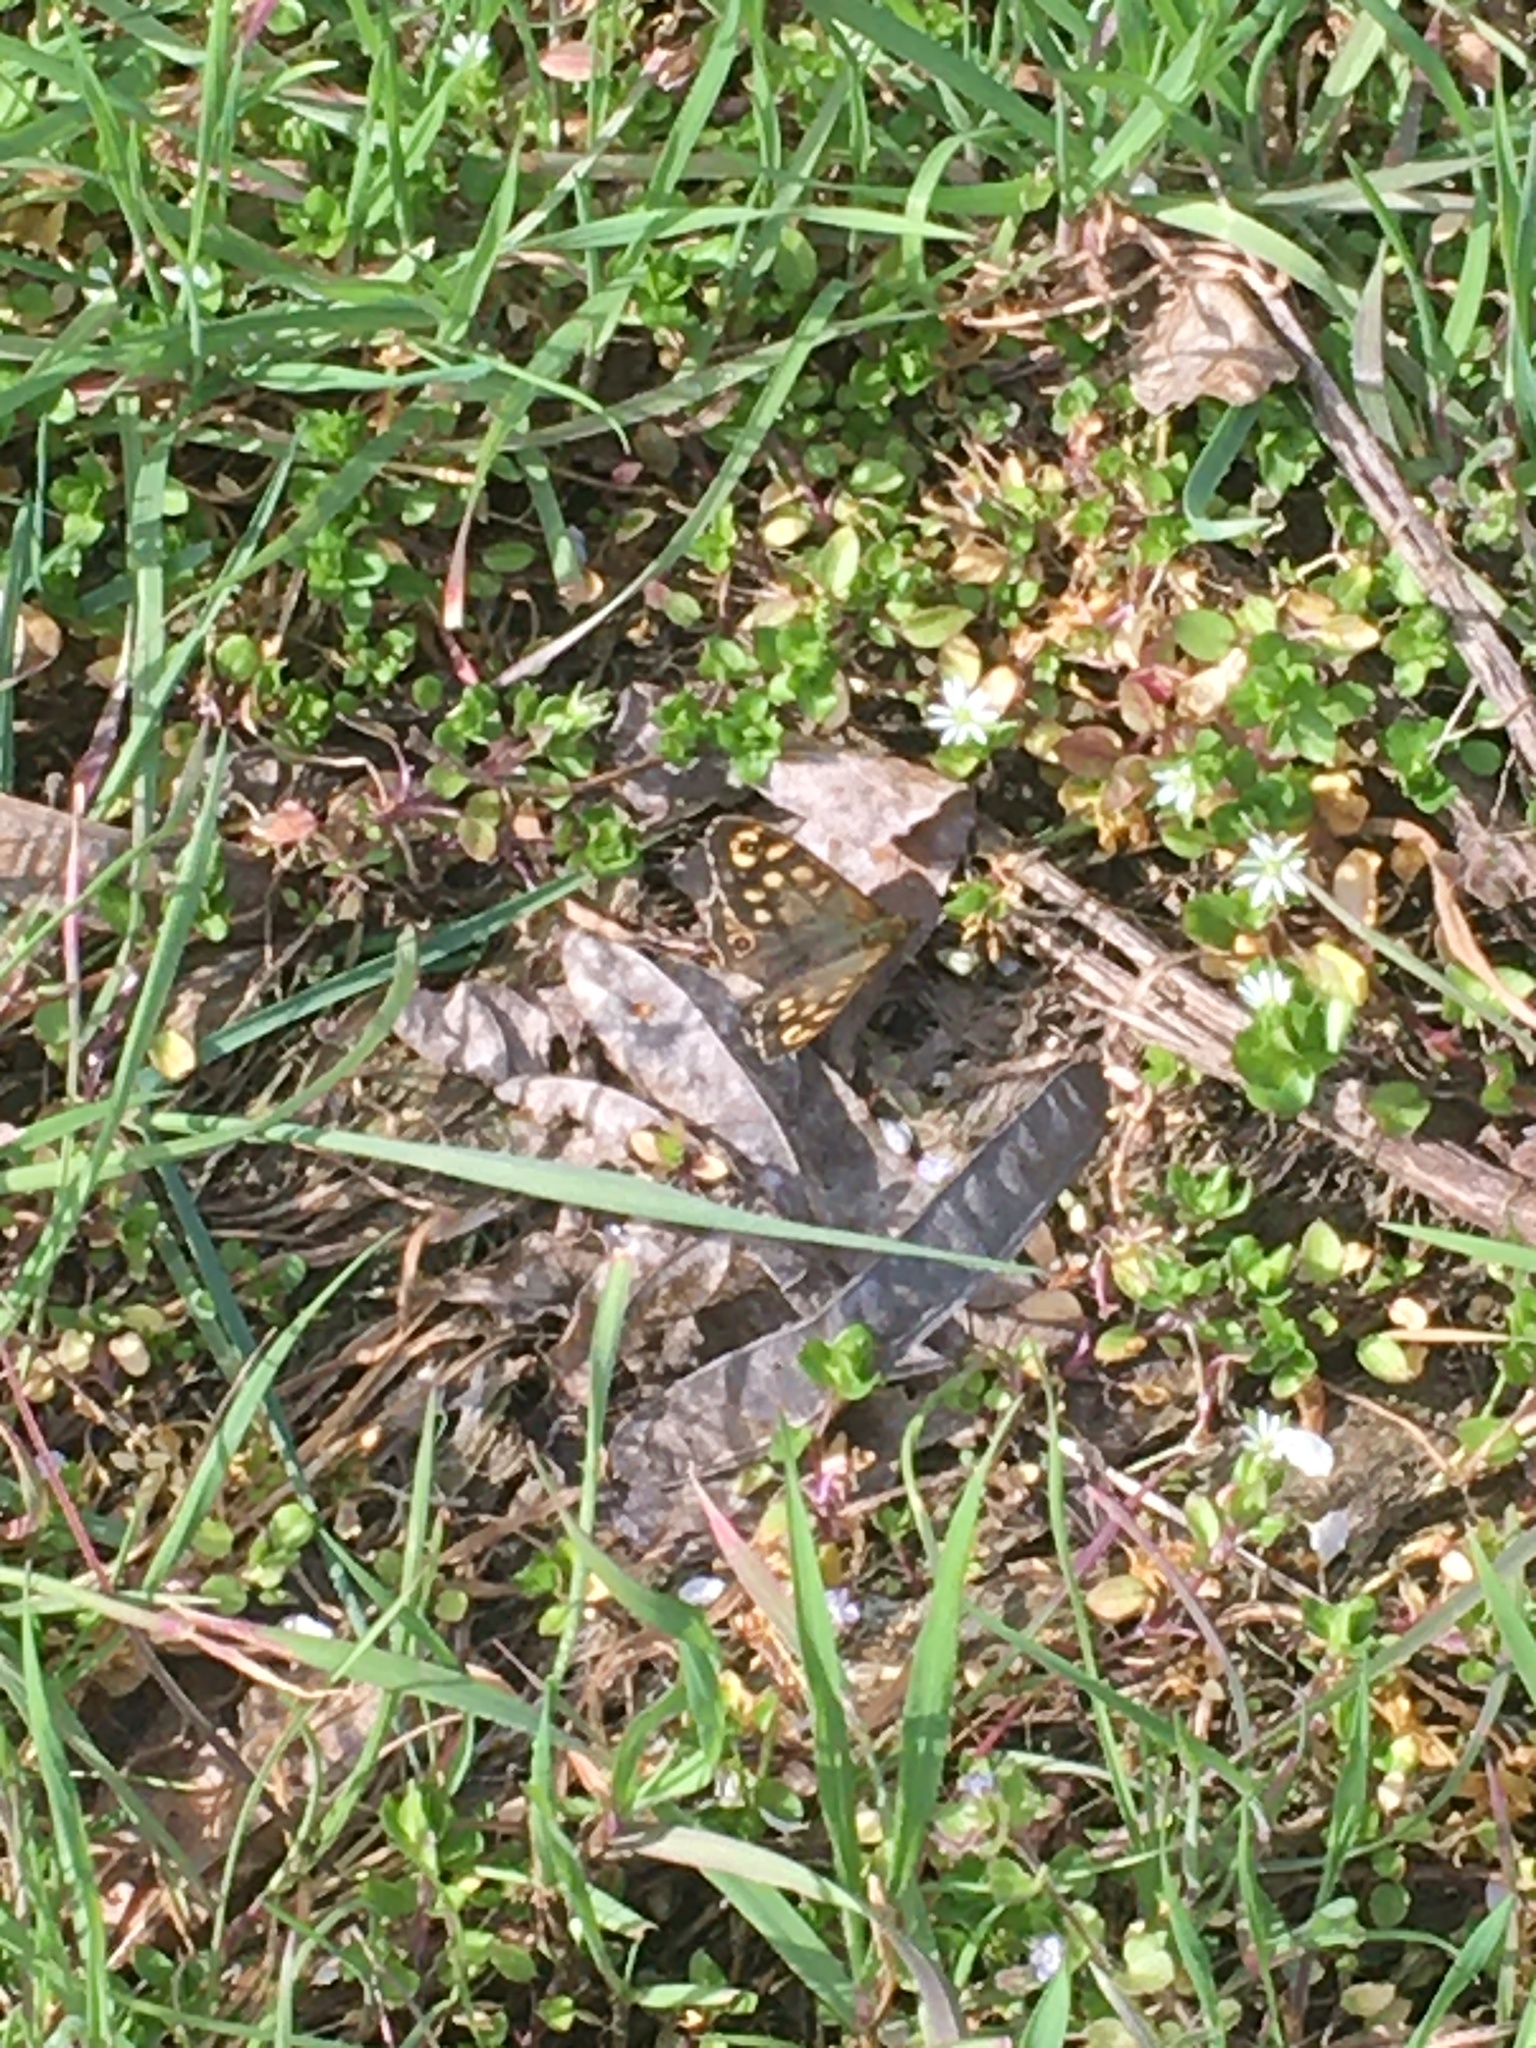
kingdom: Animalia
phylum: Arthropoda
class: Insecta
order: Lepidoptera
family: Nymphalidae
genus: Pararge
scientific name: Pararge aegeria
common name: Speckled wood
